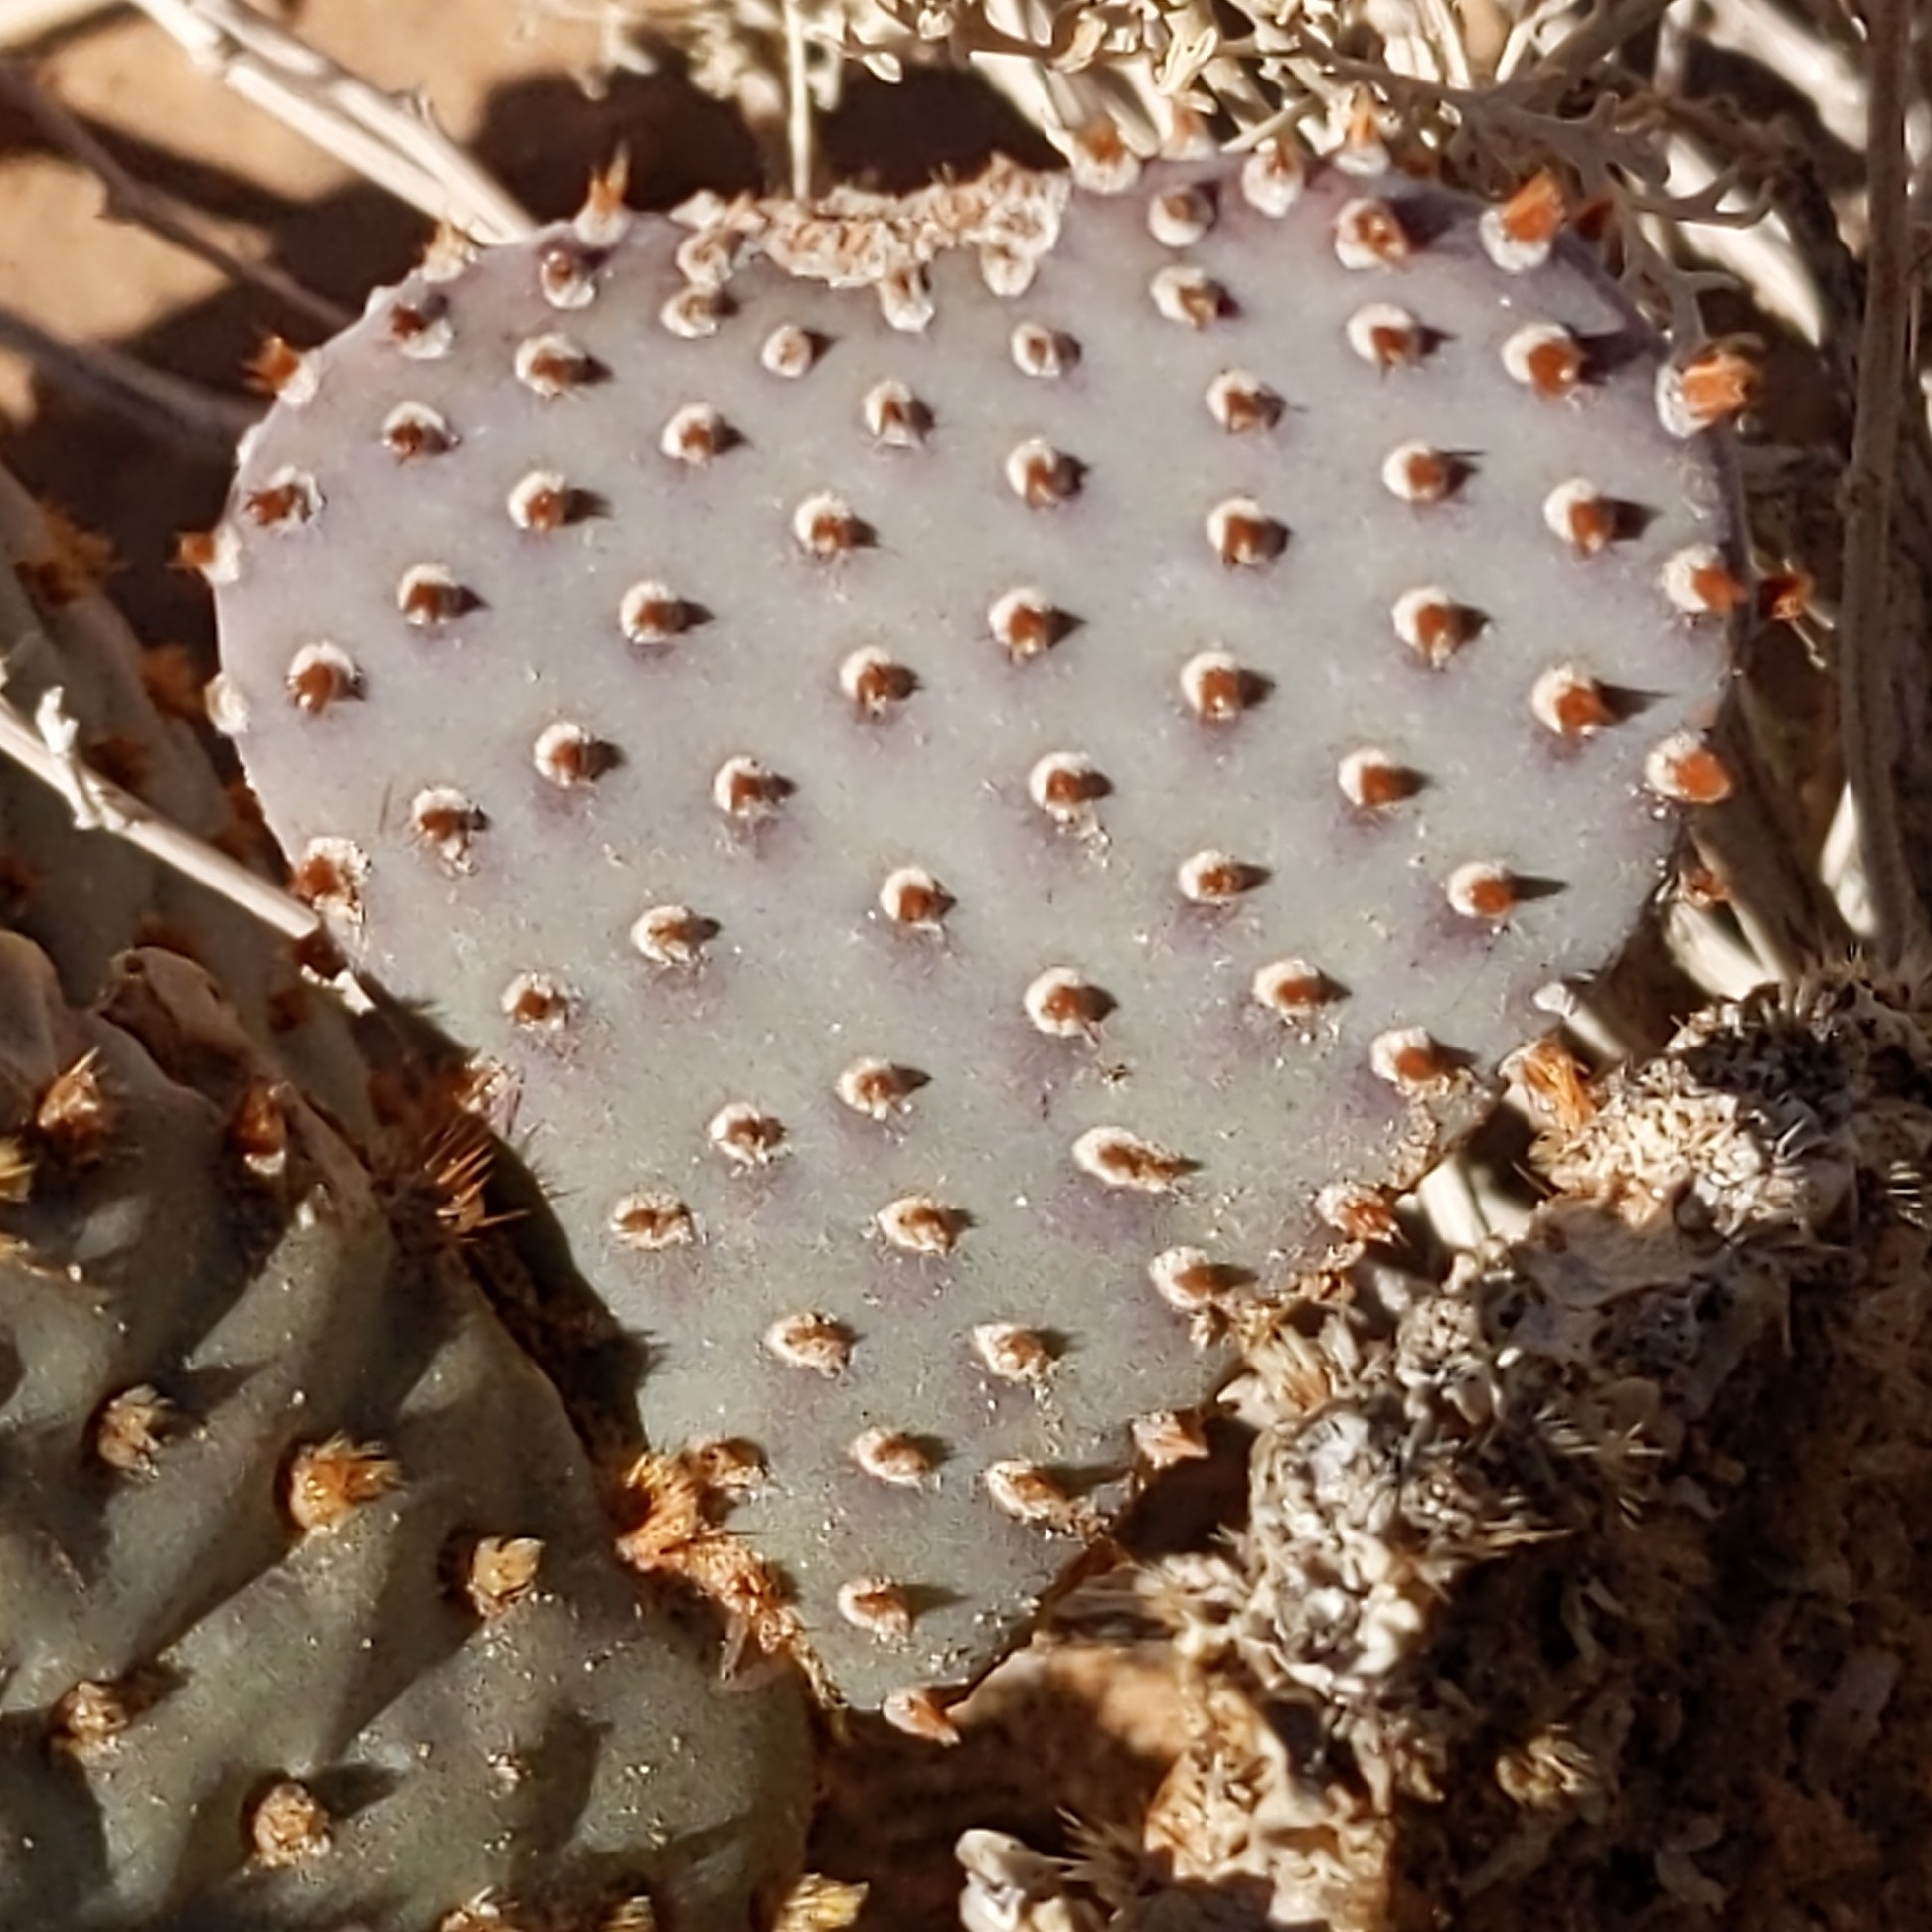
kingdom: Plantae
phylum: Tracheophyta
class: Magnoliopsida
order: Caryophyllales
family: Cactaceae
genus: Opuntia
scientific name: Opuntia basilaris
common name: Beavertail prickly-pear
